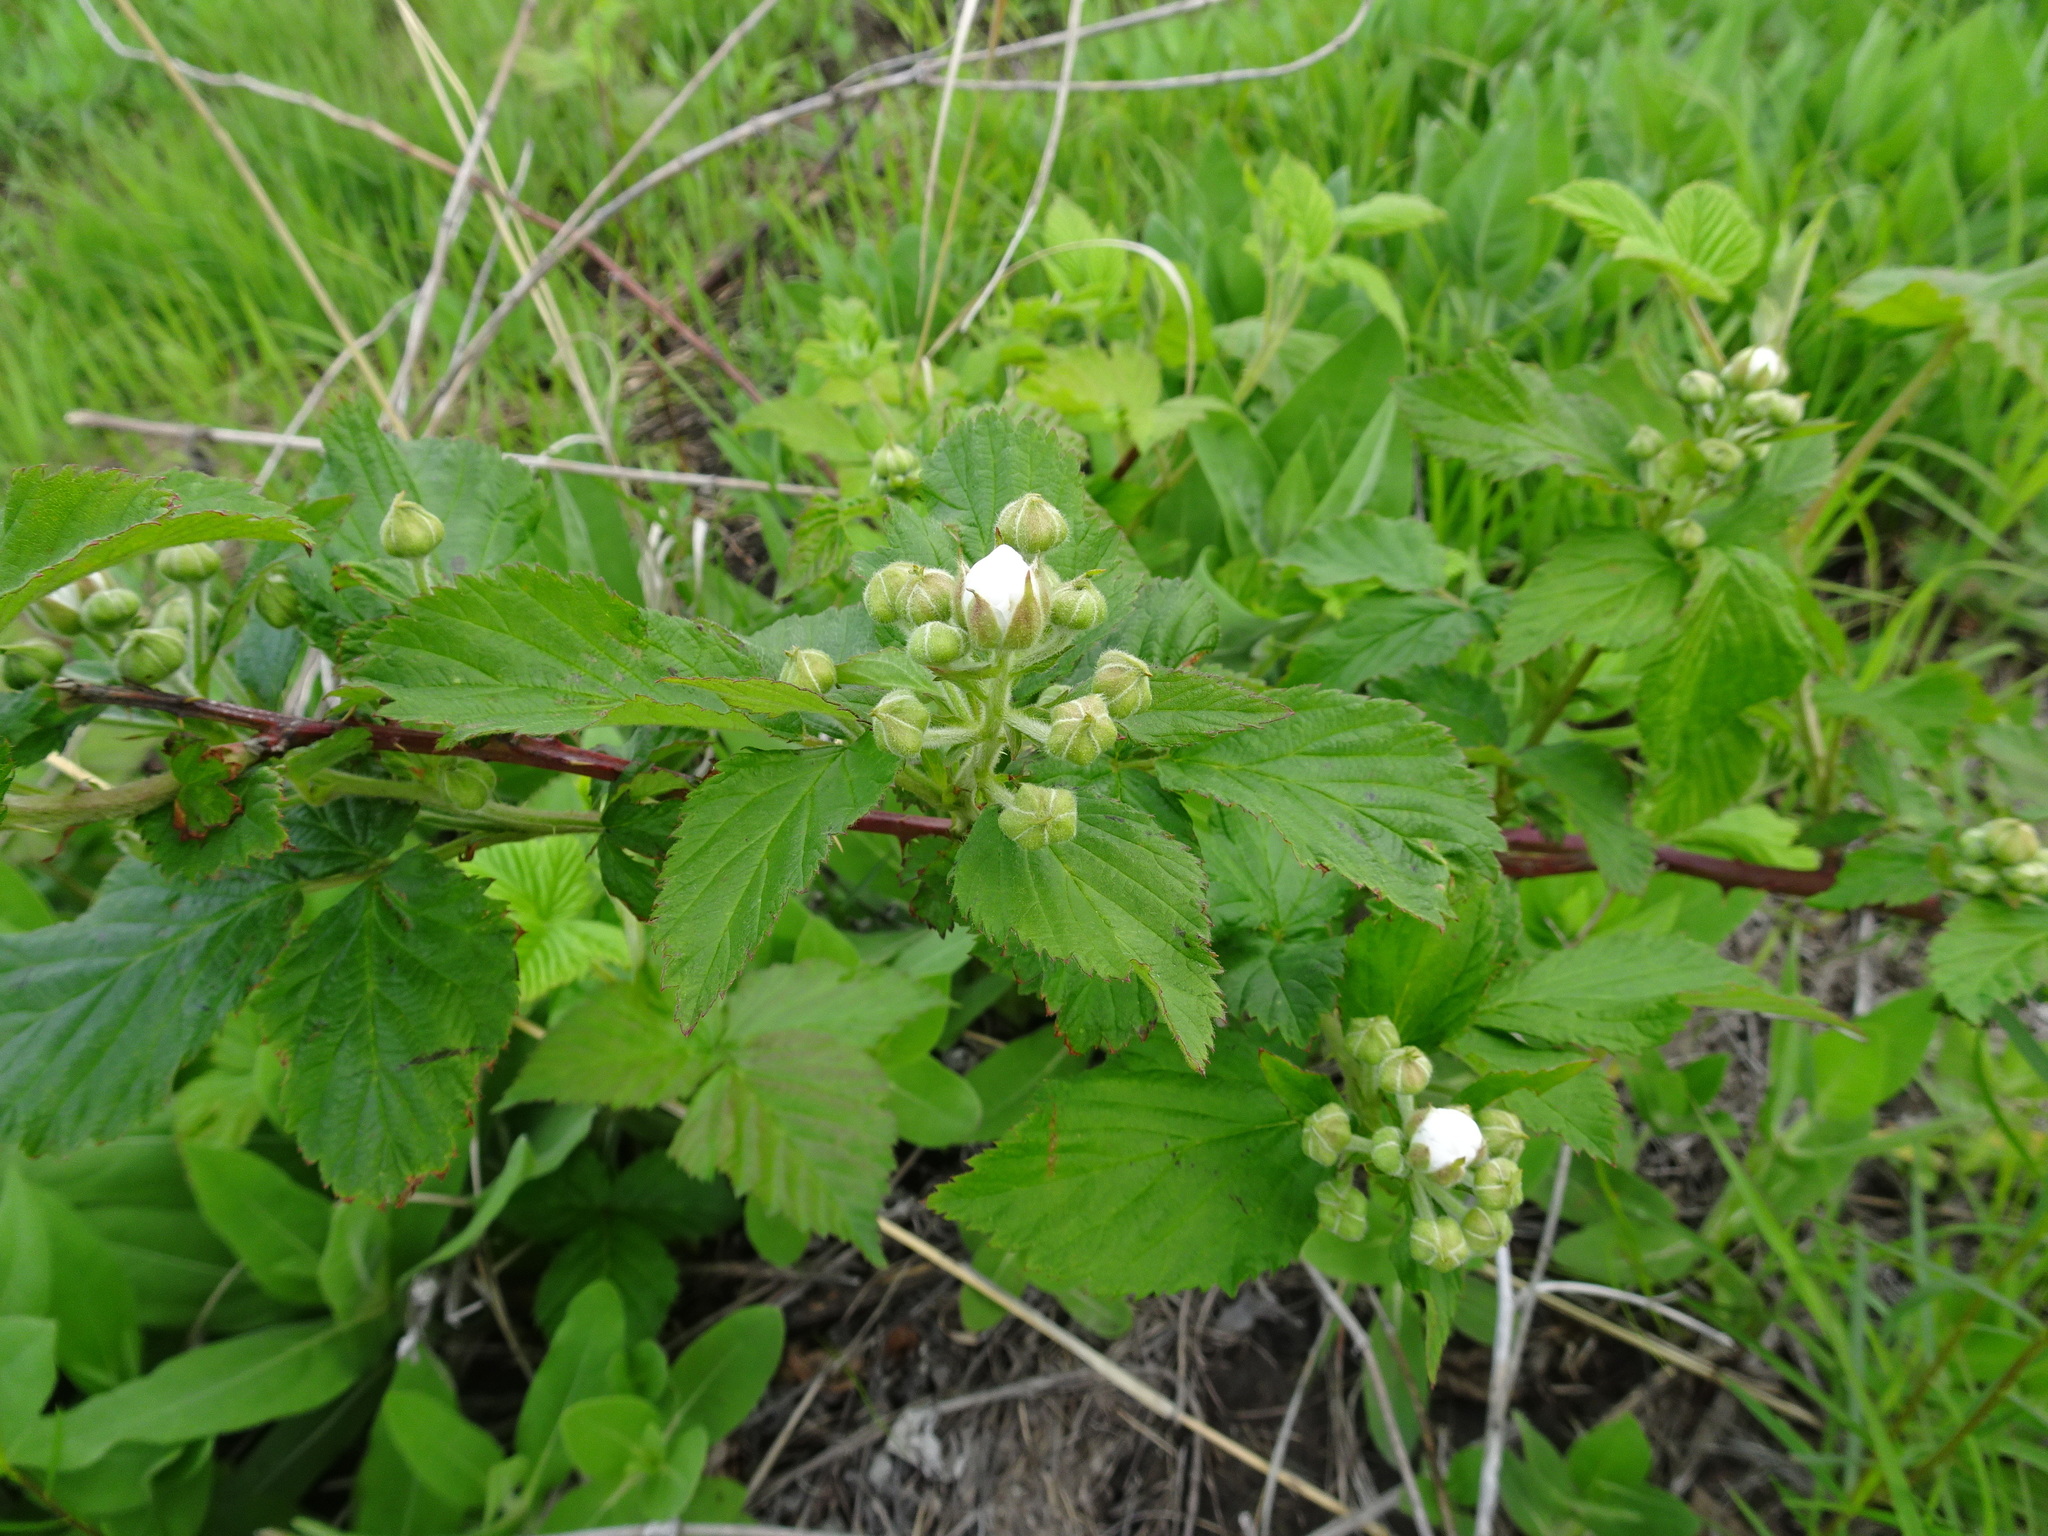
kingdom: Plantae
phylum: Tracheophyta
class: Magnoliopsida
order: Rosales
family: Rosaceae
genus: Rubus
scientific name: Rubus laudatus
